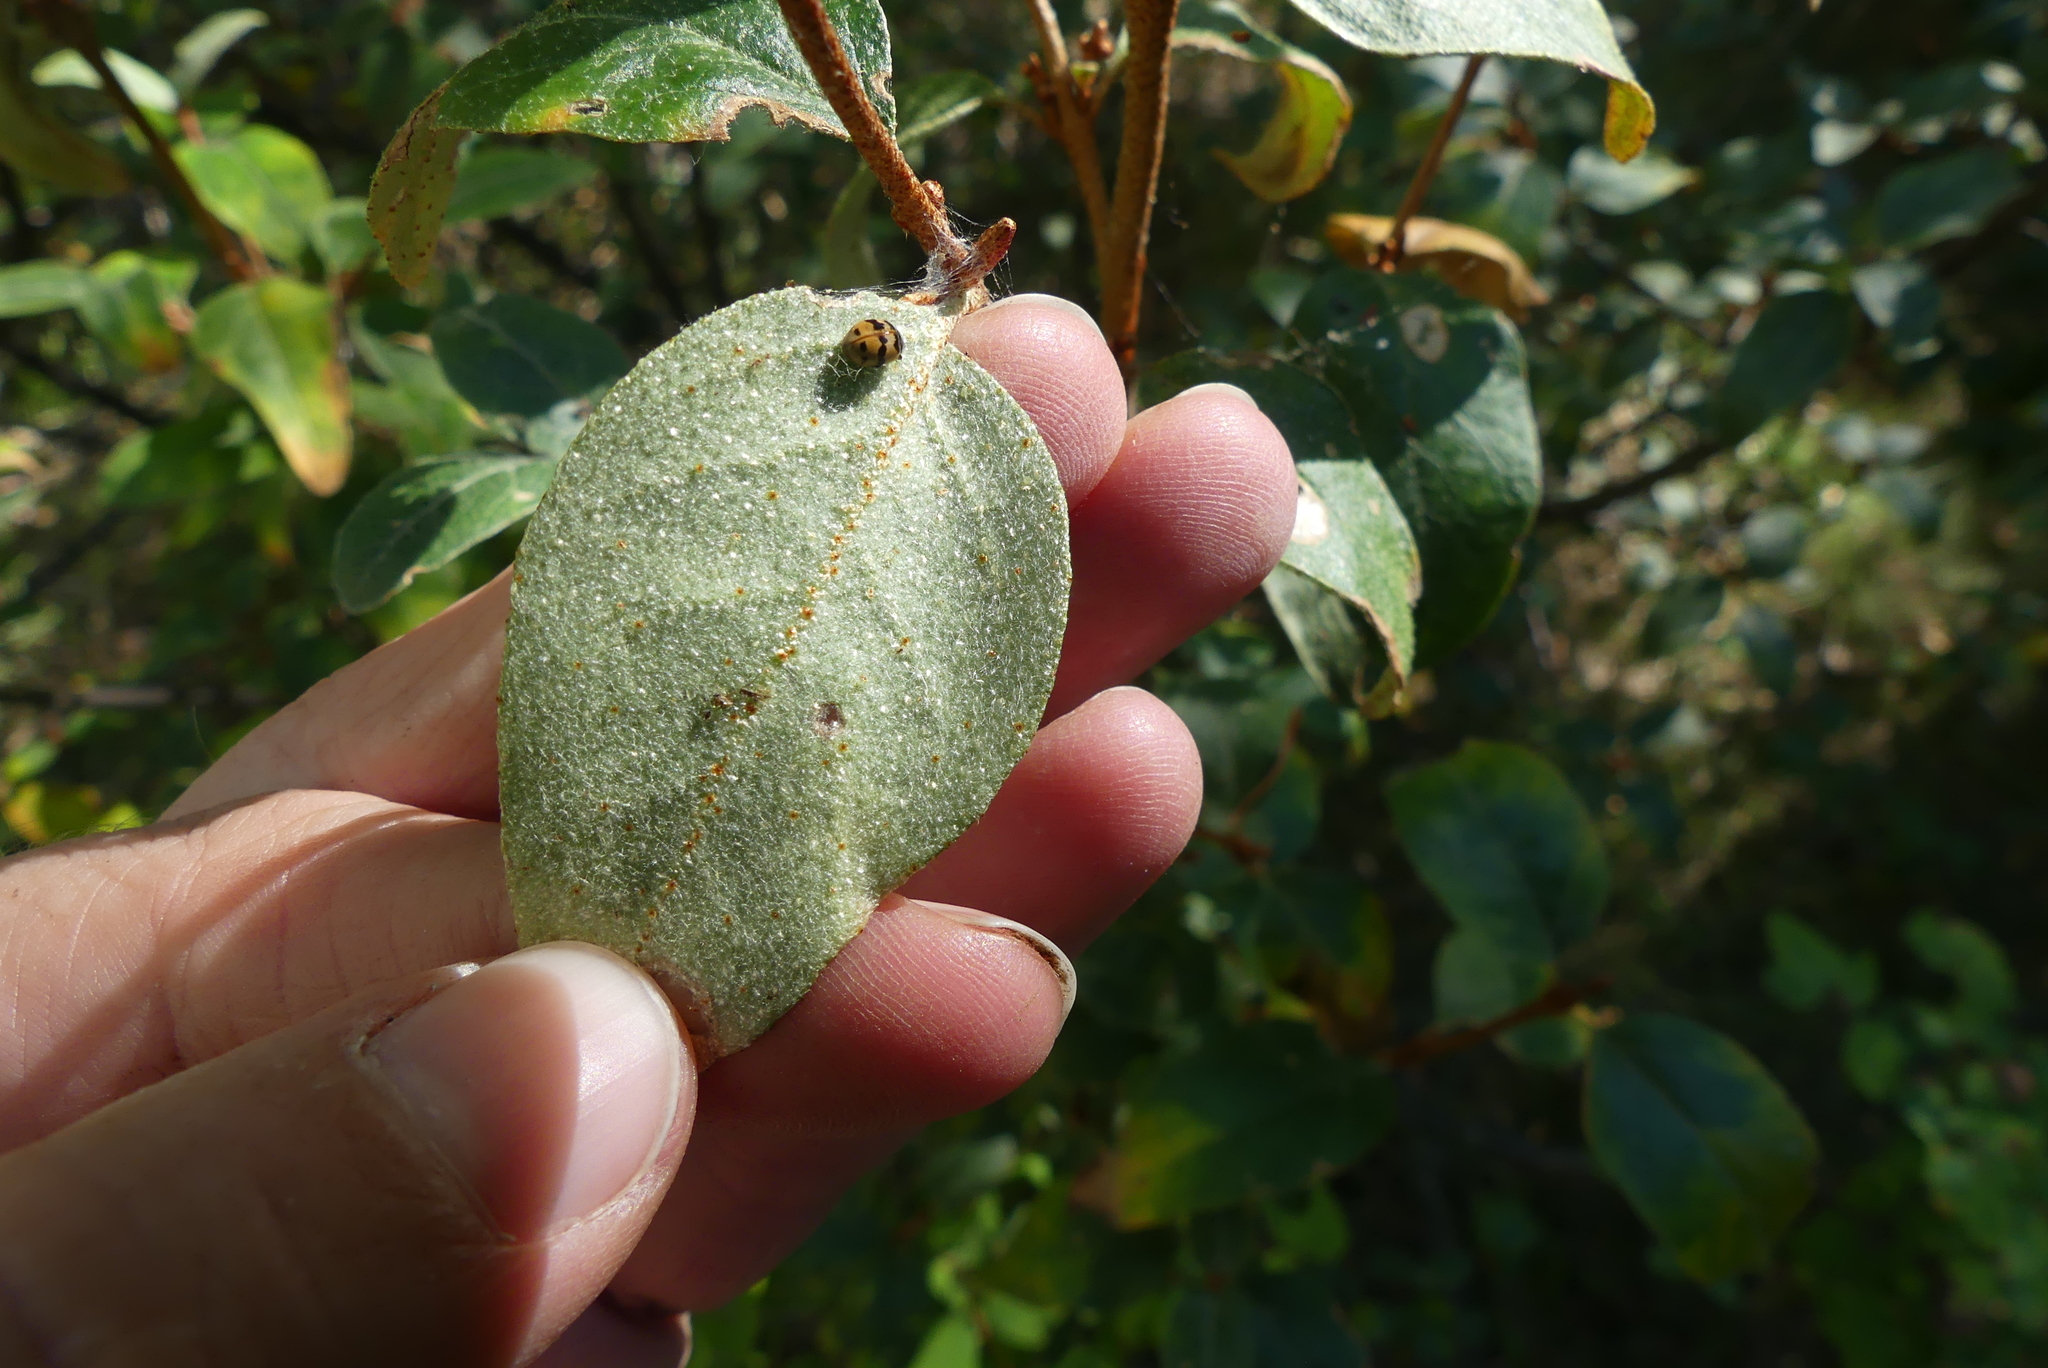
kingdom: Plantae
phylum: Tracheophyta
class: Magnoliopsida
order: Rosales
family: Elaeagnaceae
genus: Shepherdia
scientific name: Shepherdia canadensis
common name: Soapberry
